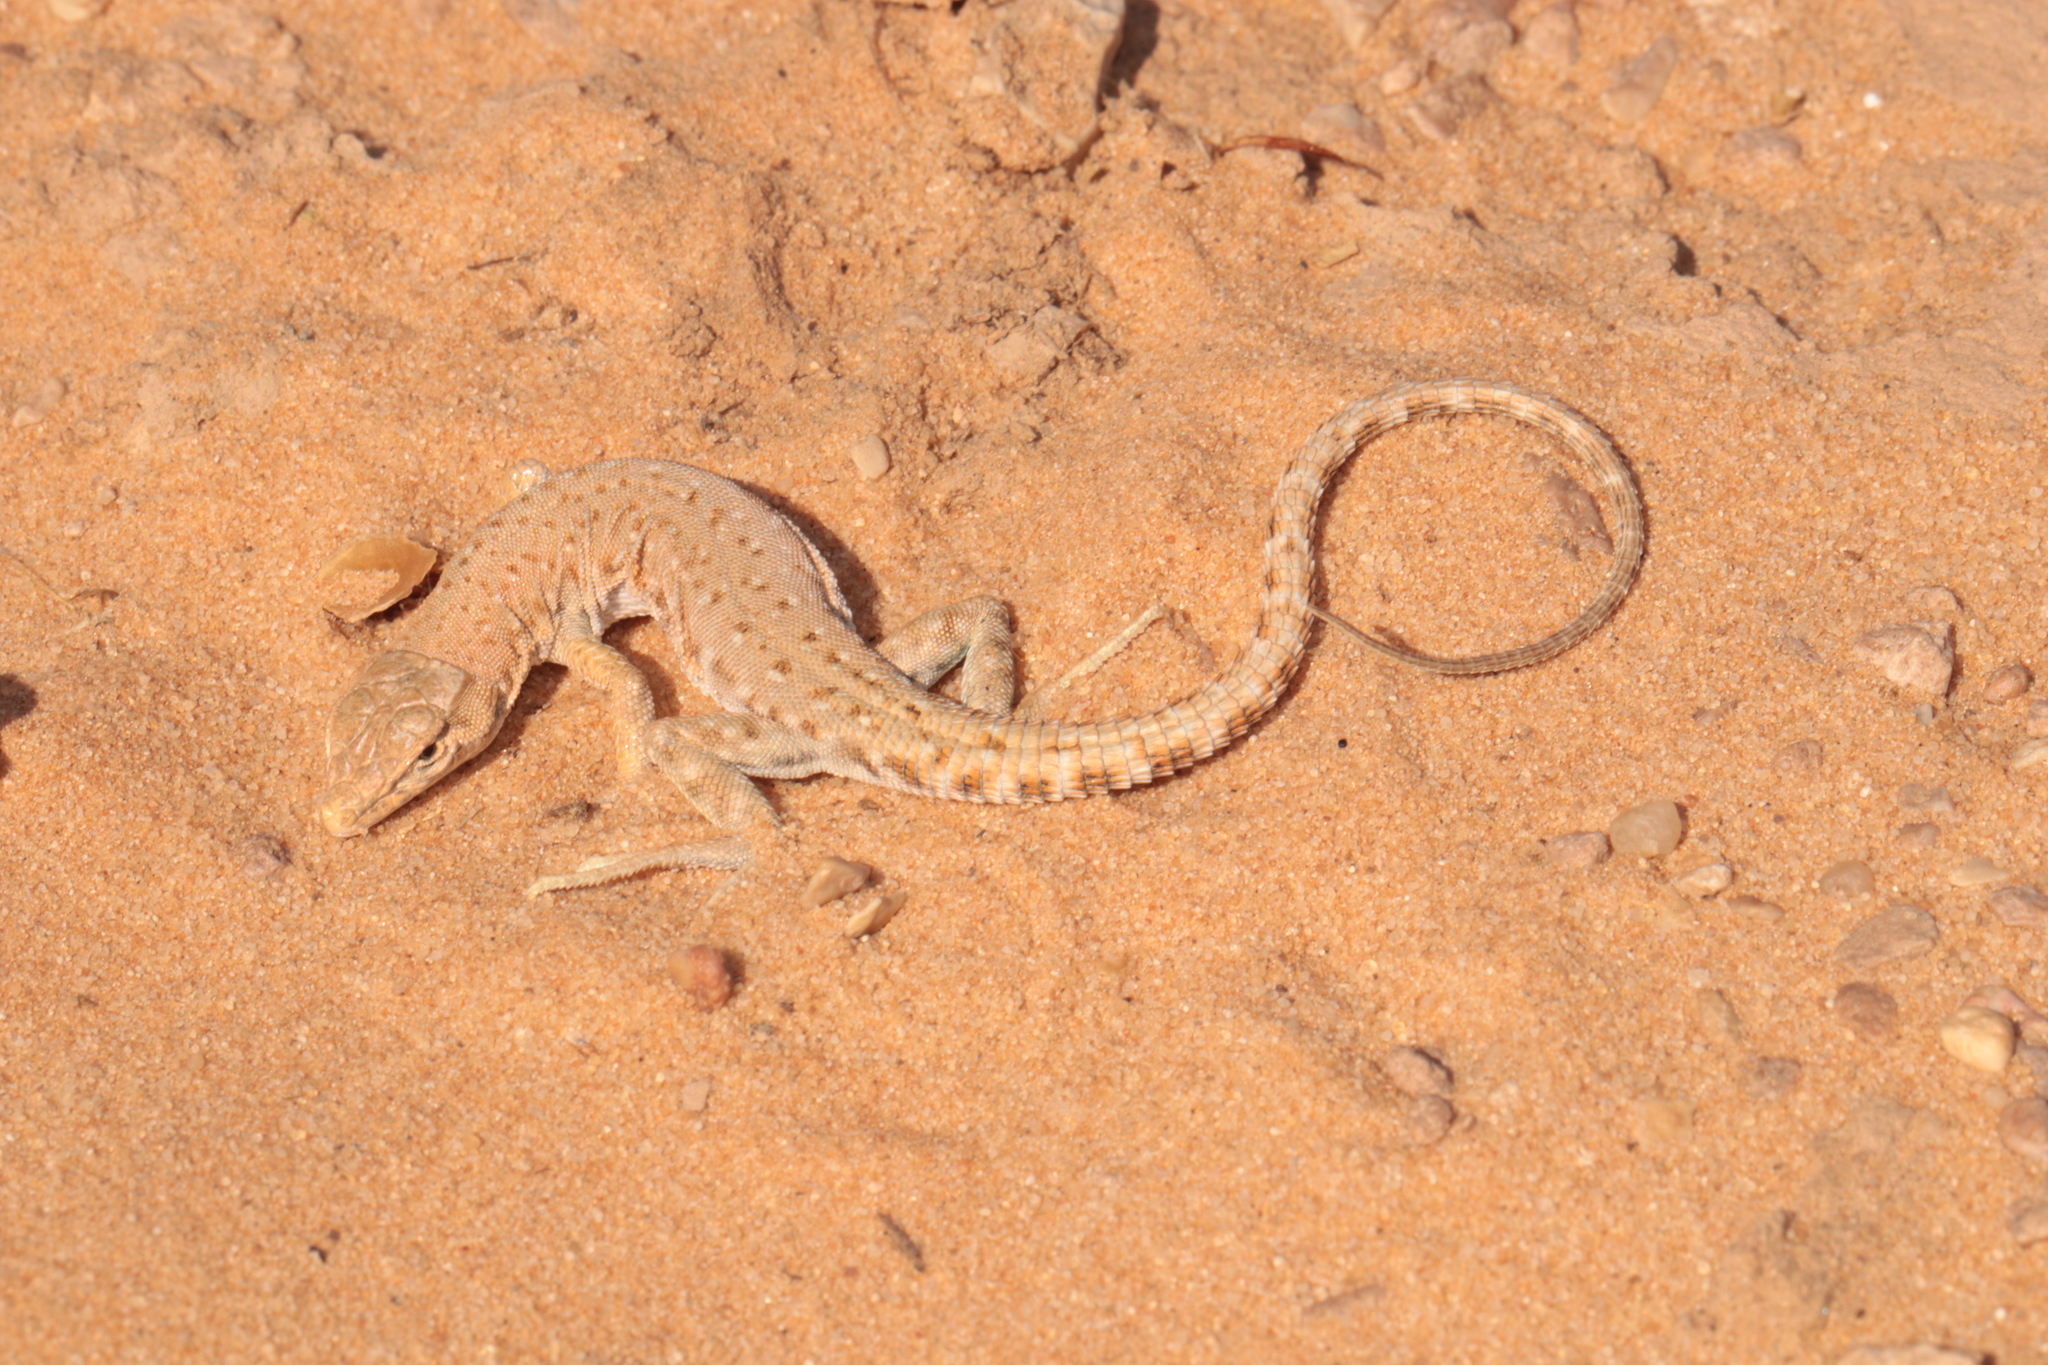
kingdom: Animalia
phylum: Chordata
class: Squamata
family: Lacertidae
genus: Mesalina
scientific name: Mesalina brevirostris
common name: Blanford's short-nosed desert lizard
